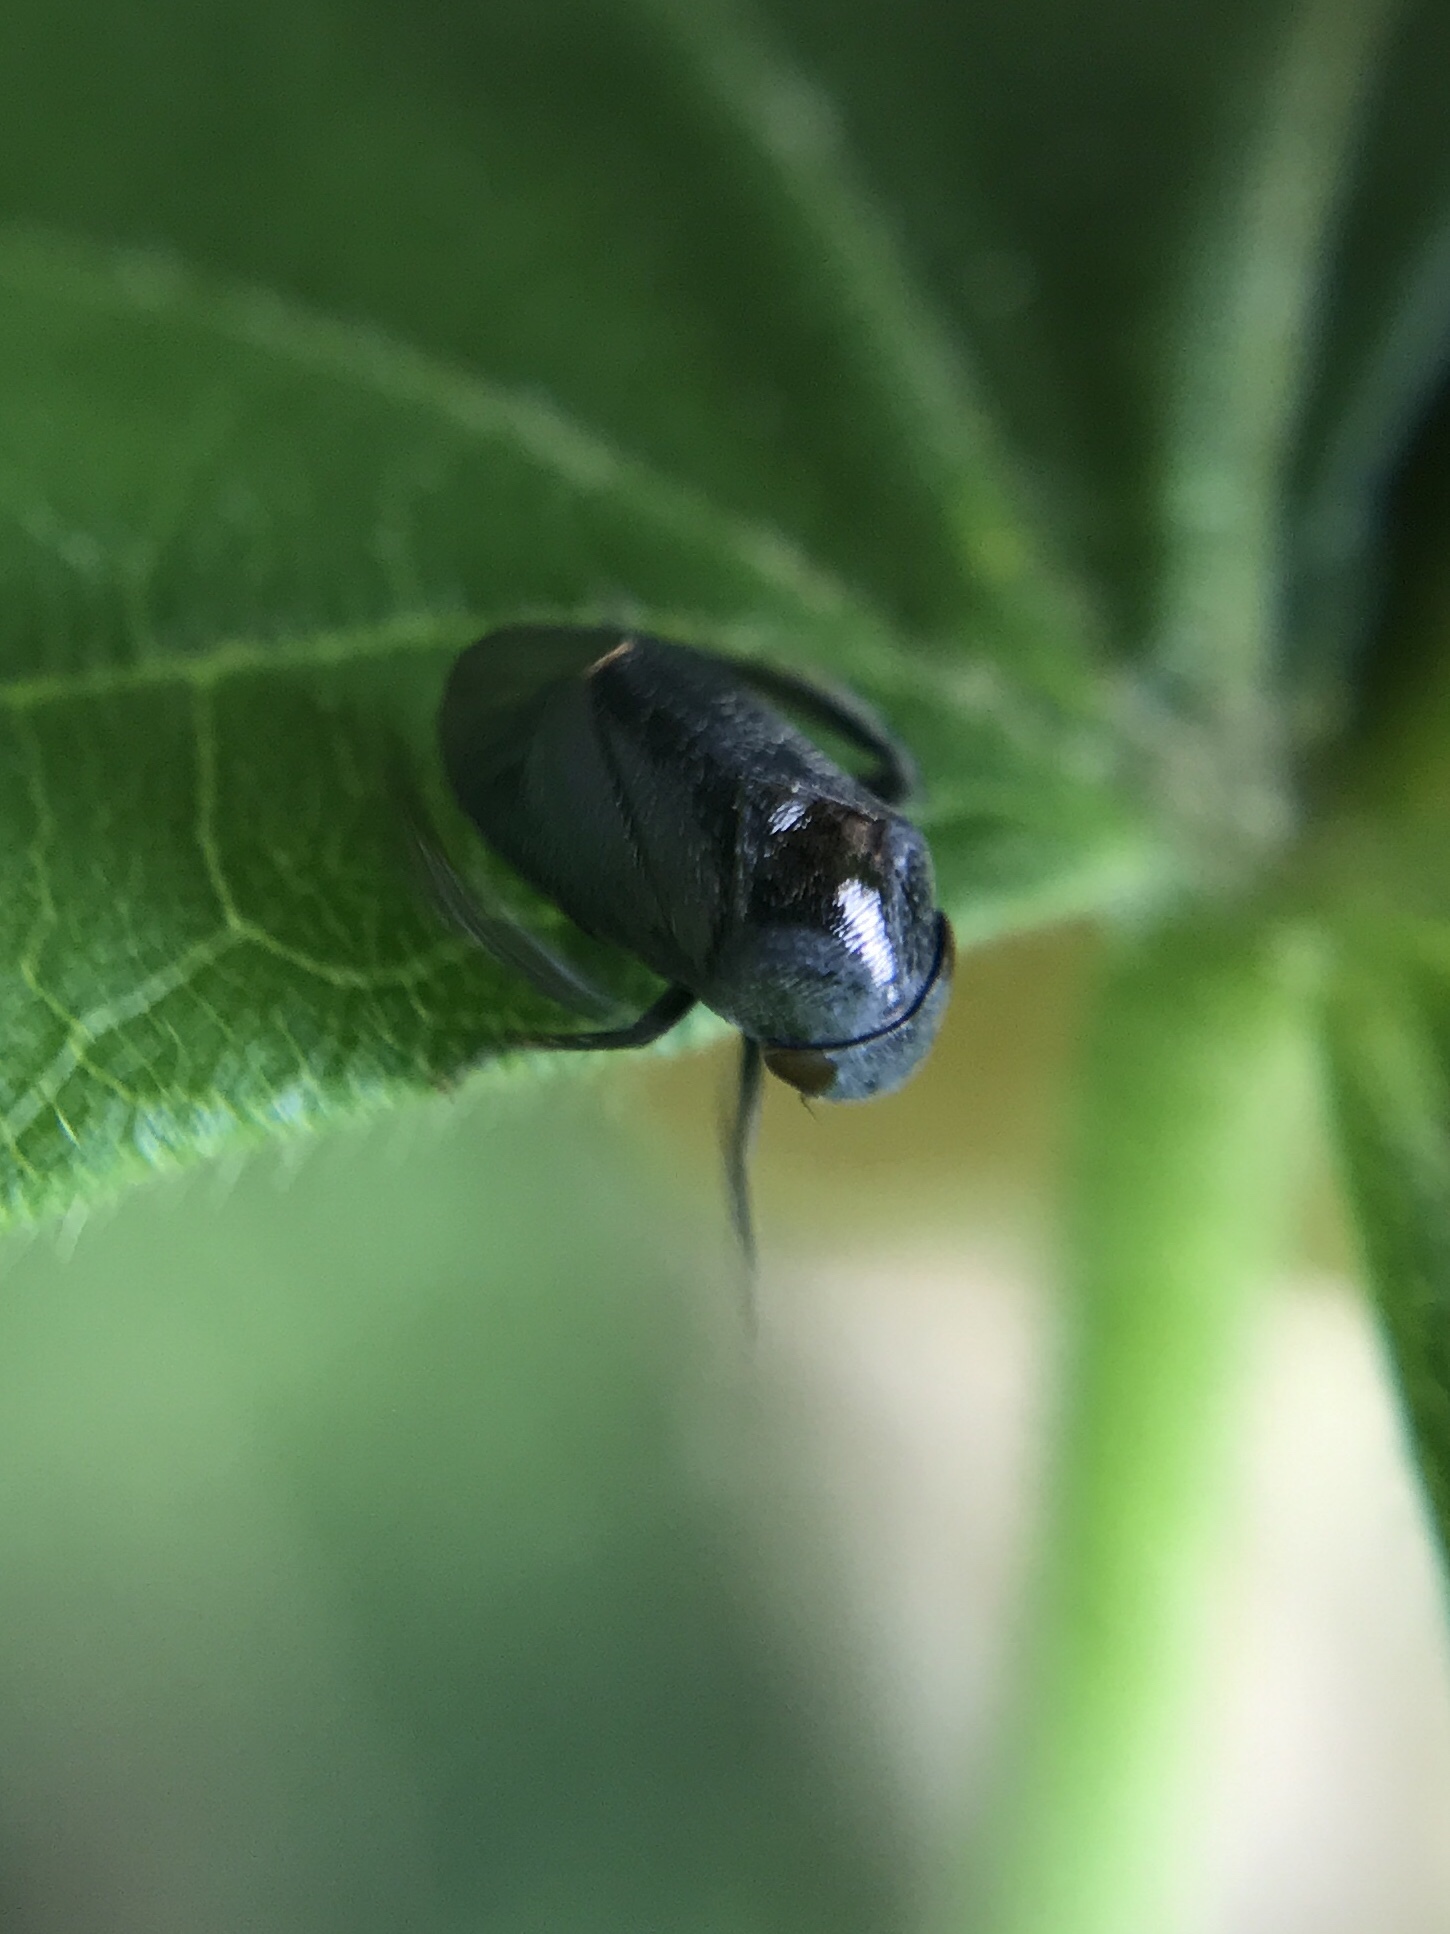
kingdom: Animalia
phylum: Arthropoda
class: Insecta
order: Hemiptera
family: Cicadellidae
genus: Penthimia
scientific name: Penthimia nigra
